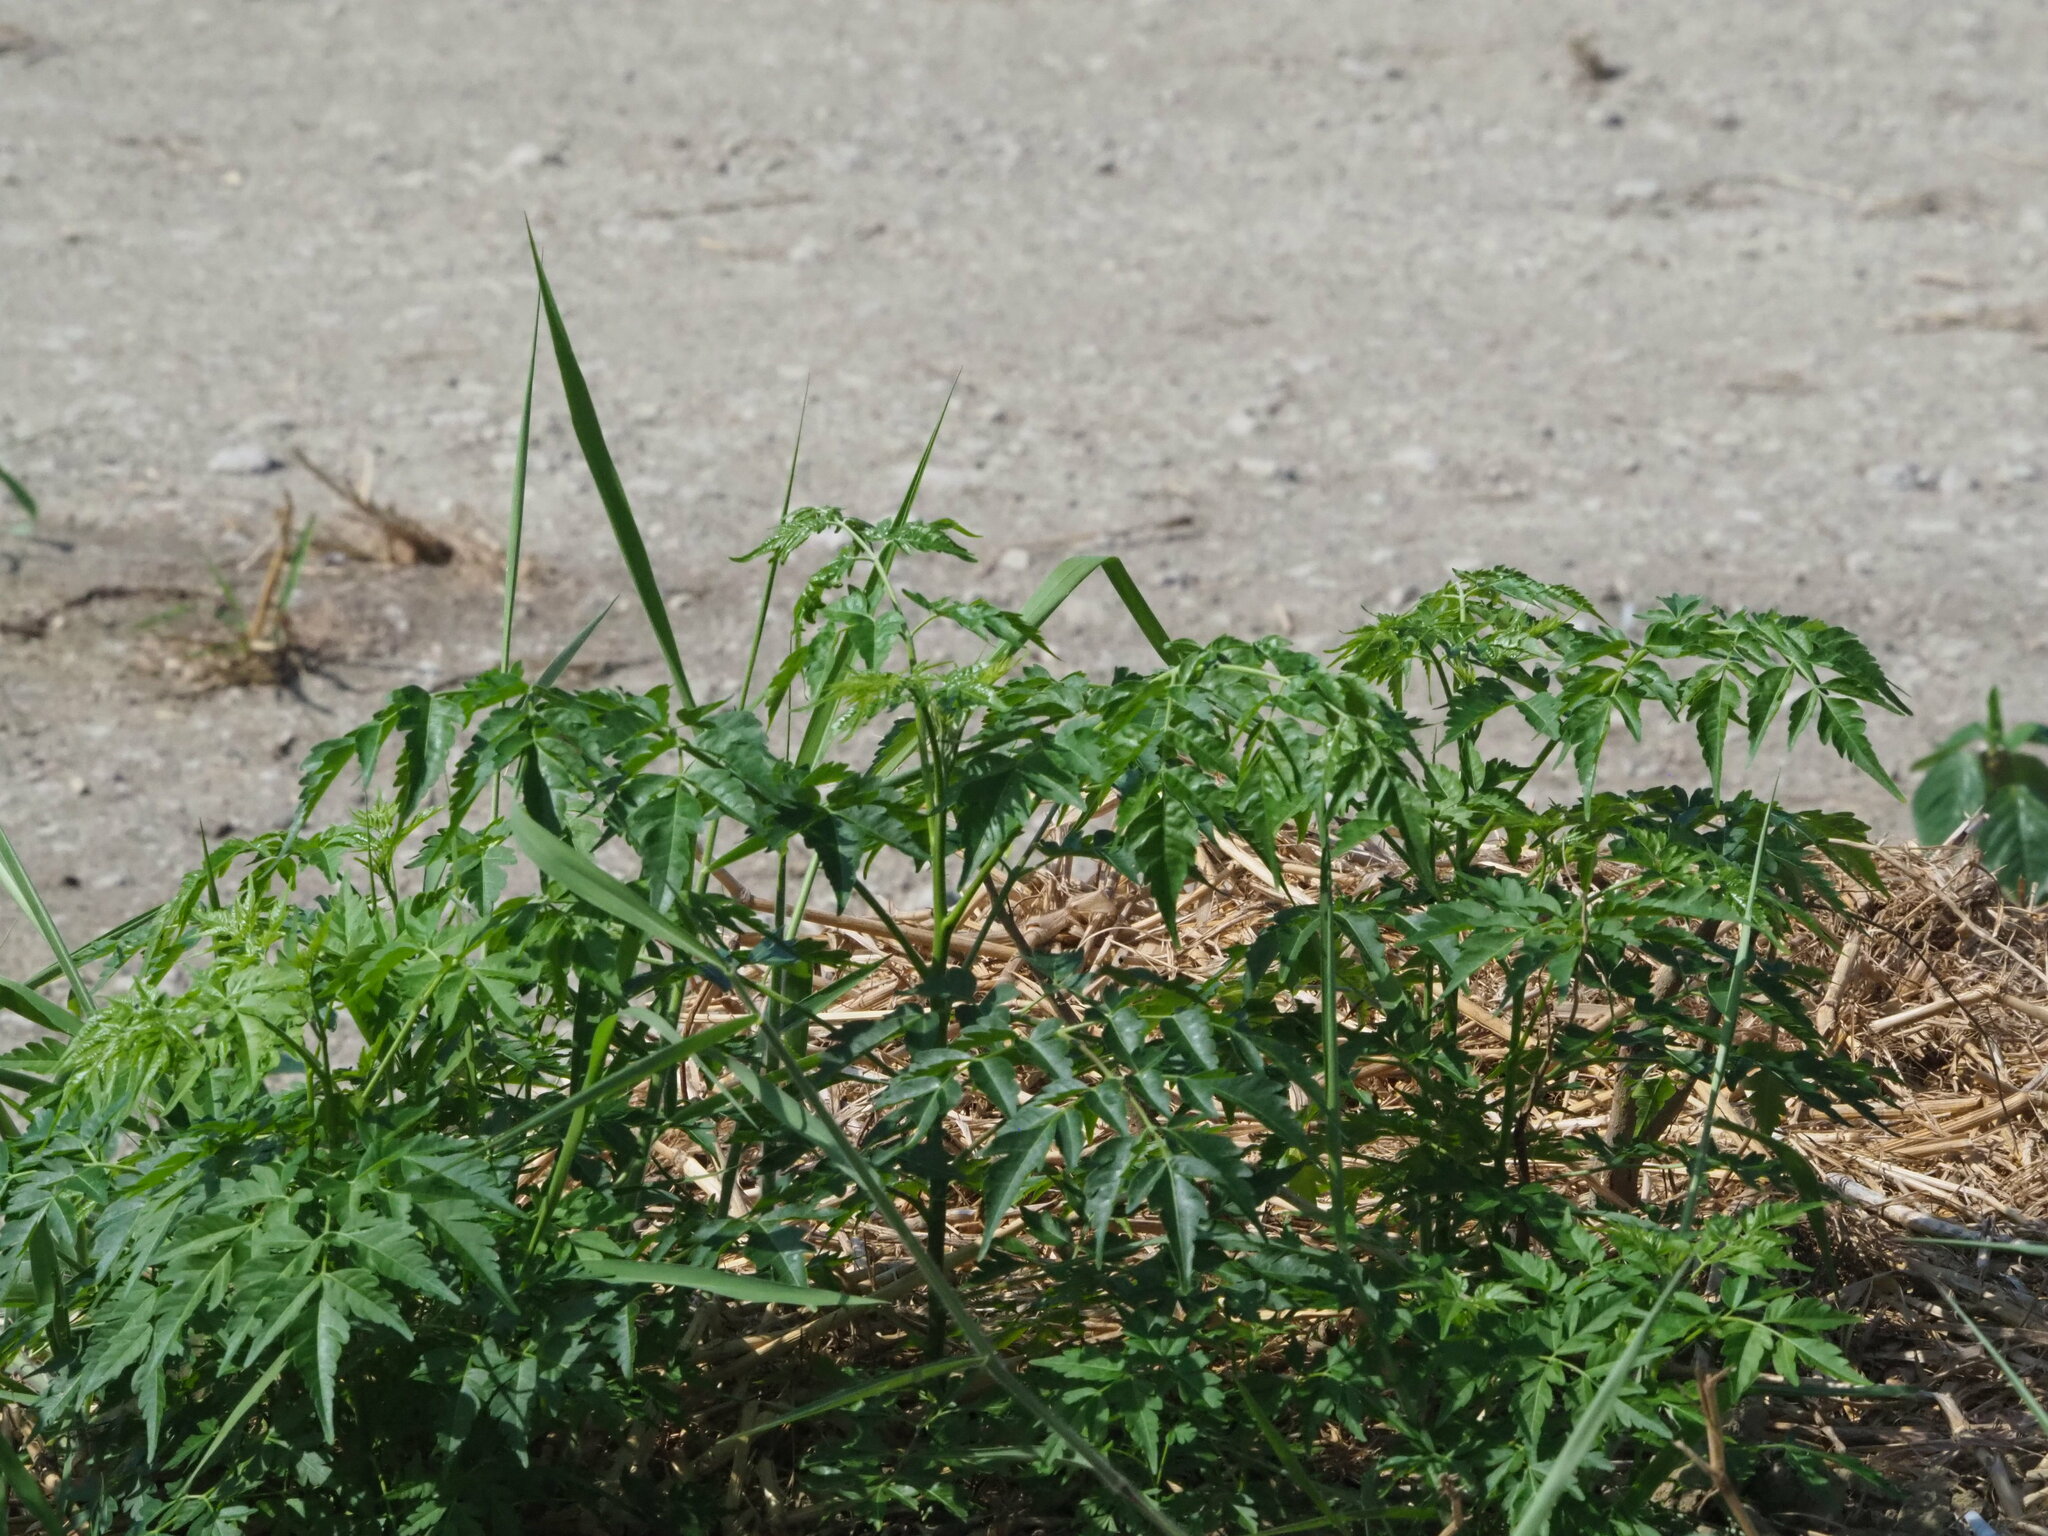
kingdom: Plantae
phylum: Tracheophyta
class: Magnoliopsida
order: Sapindales
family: Meliaceae
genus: Melia
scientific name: Melia azedarach
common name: Chinaberrytree
